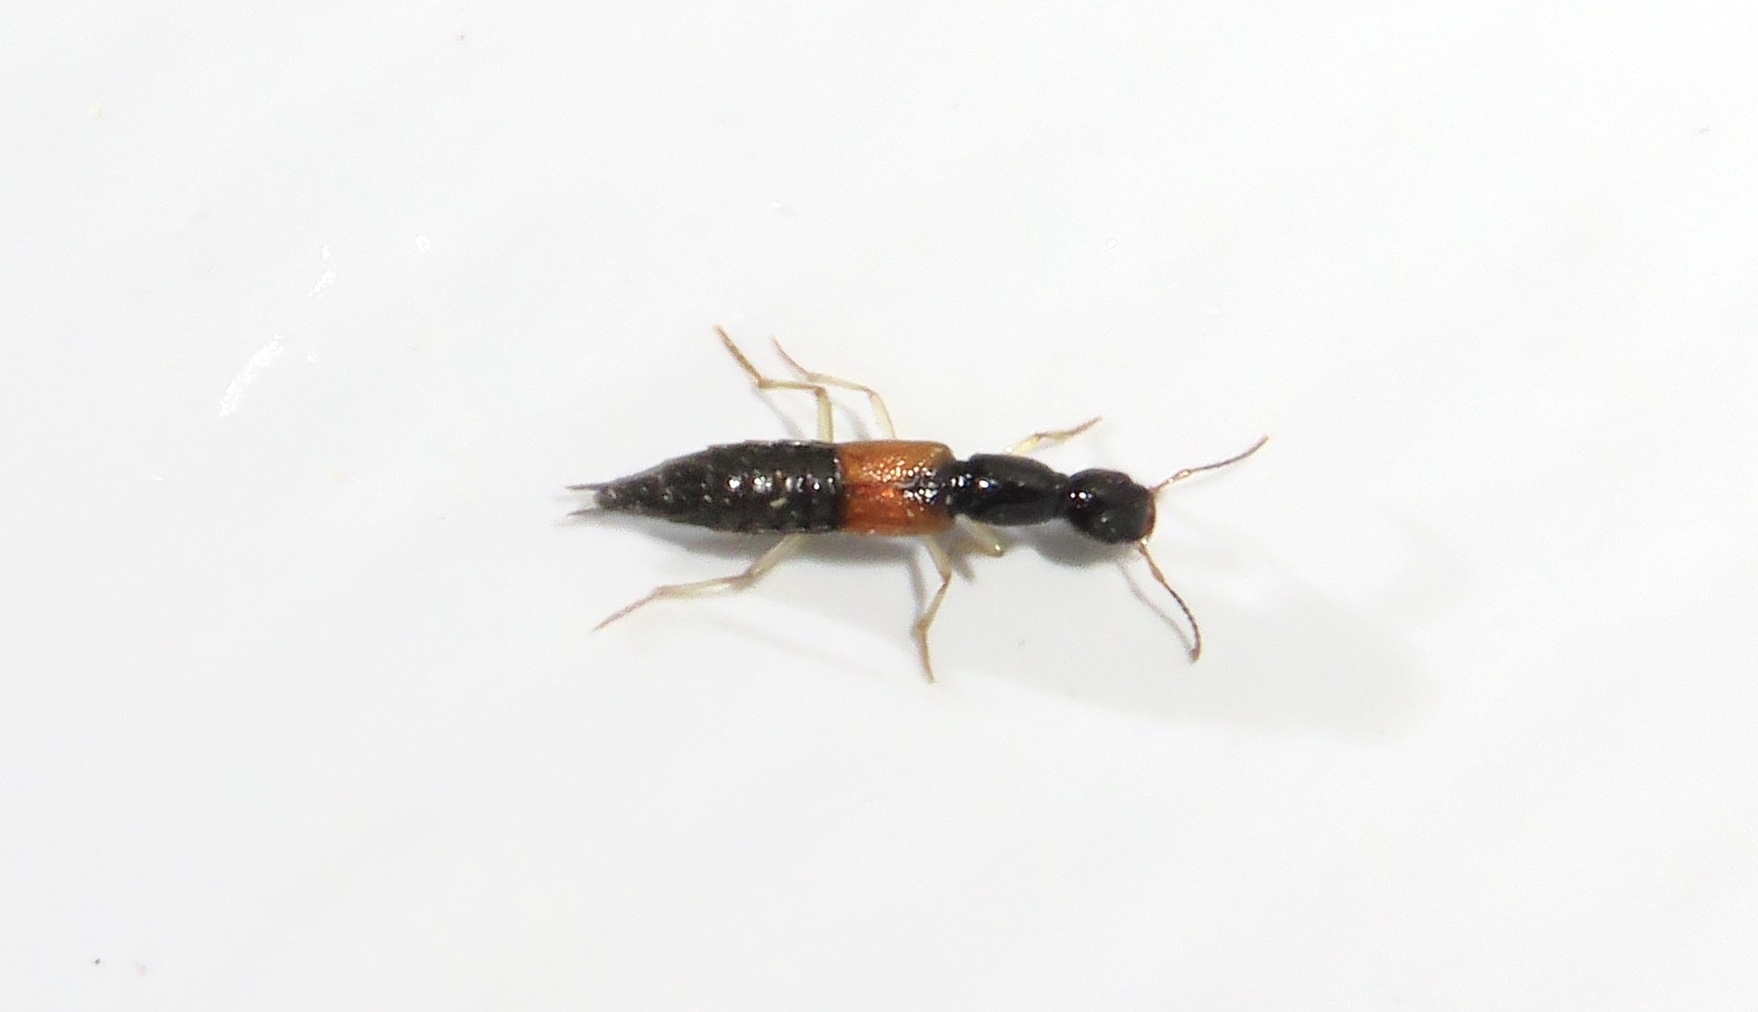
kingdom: Animalia
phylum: Arthropoda
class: Insecta
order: Coleoptera
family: Staphylinidae
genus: Homaeotarsus
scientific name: Homaeotarsus cribratus
